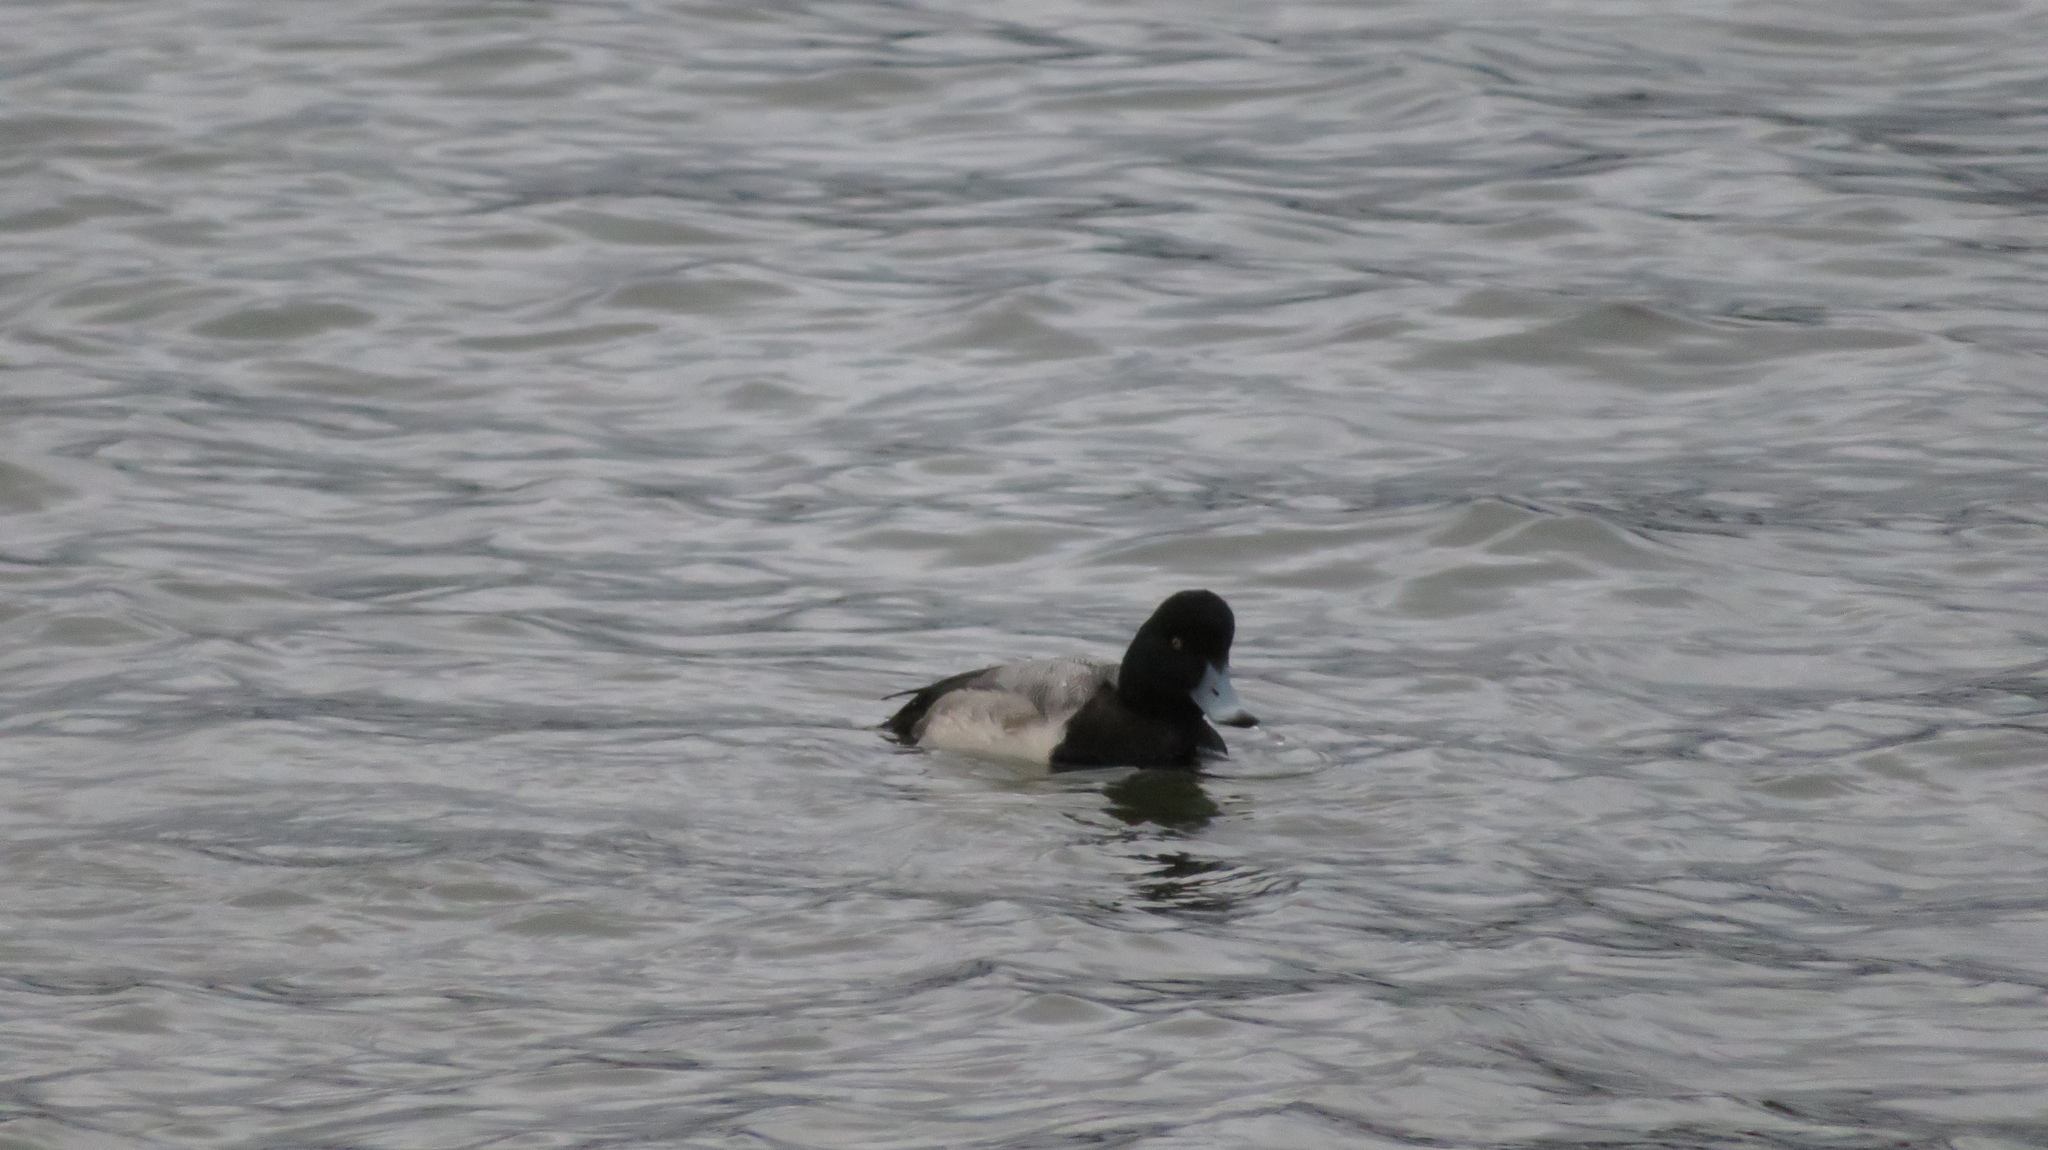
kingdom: Animalia
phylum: Chordata
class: Aves
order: Anseriformes
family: Anatidae
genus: Aythya
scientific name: Aythya marila
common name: Greater scaup
